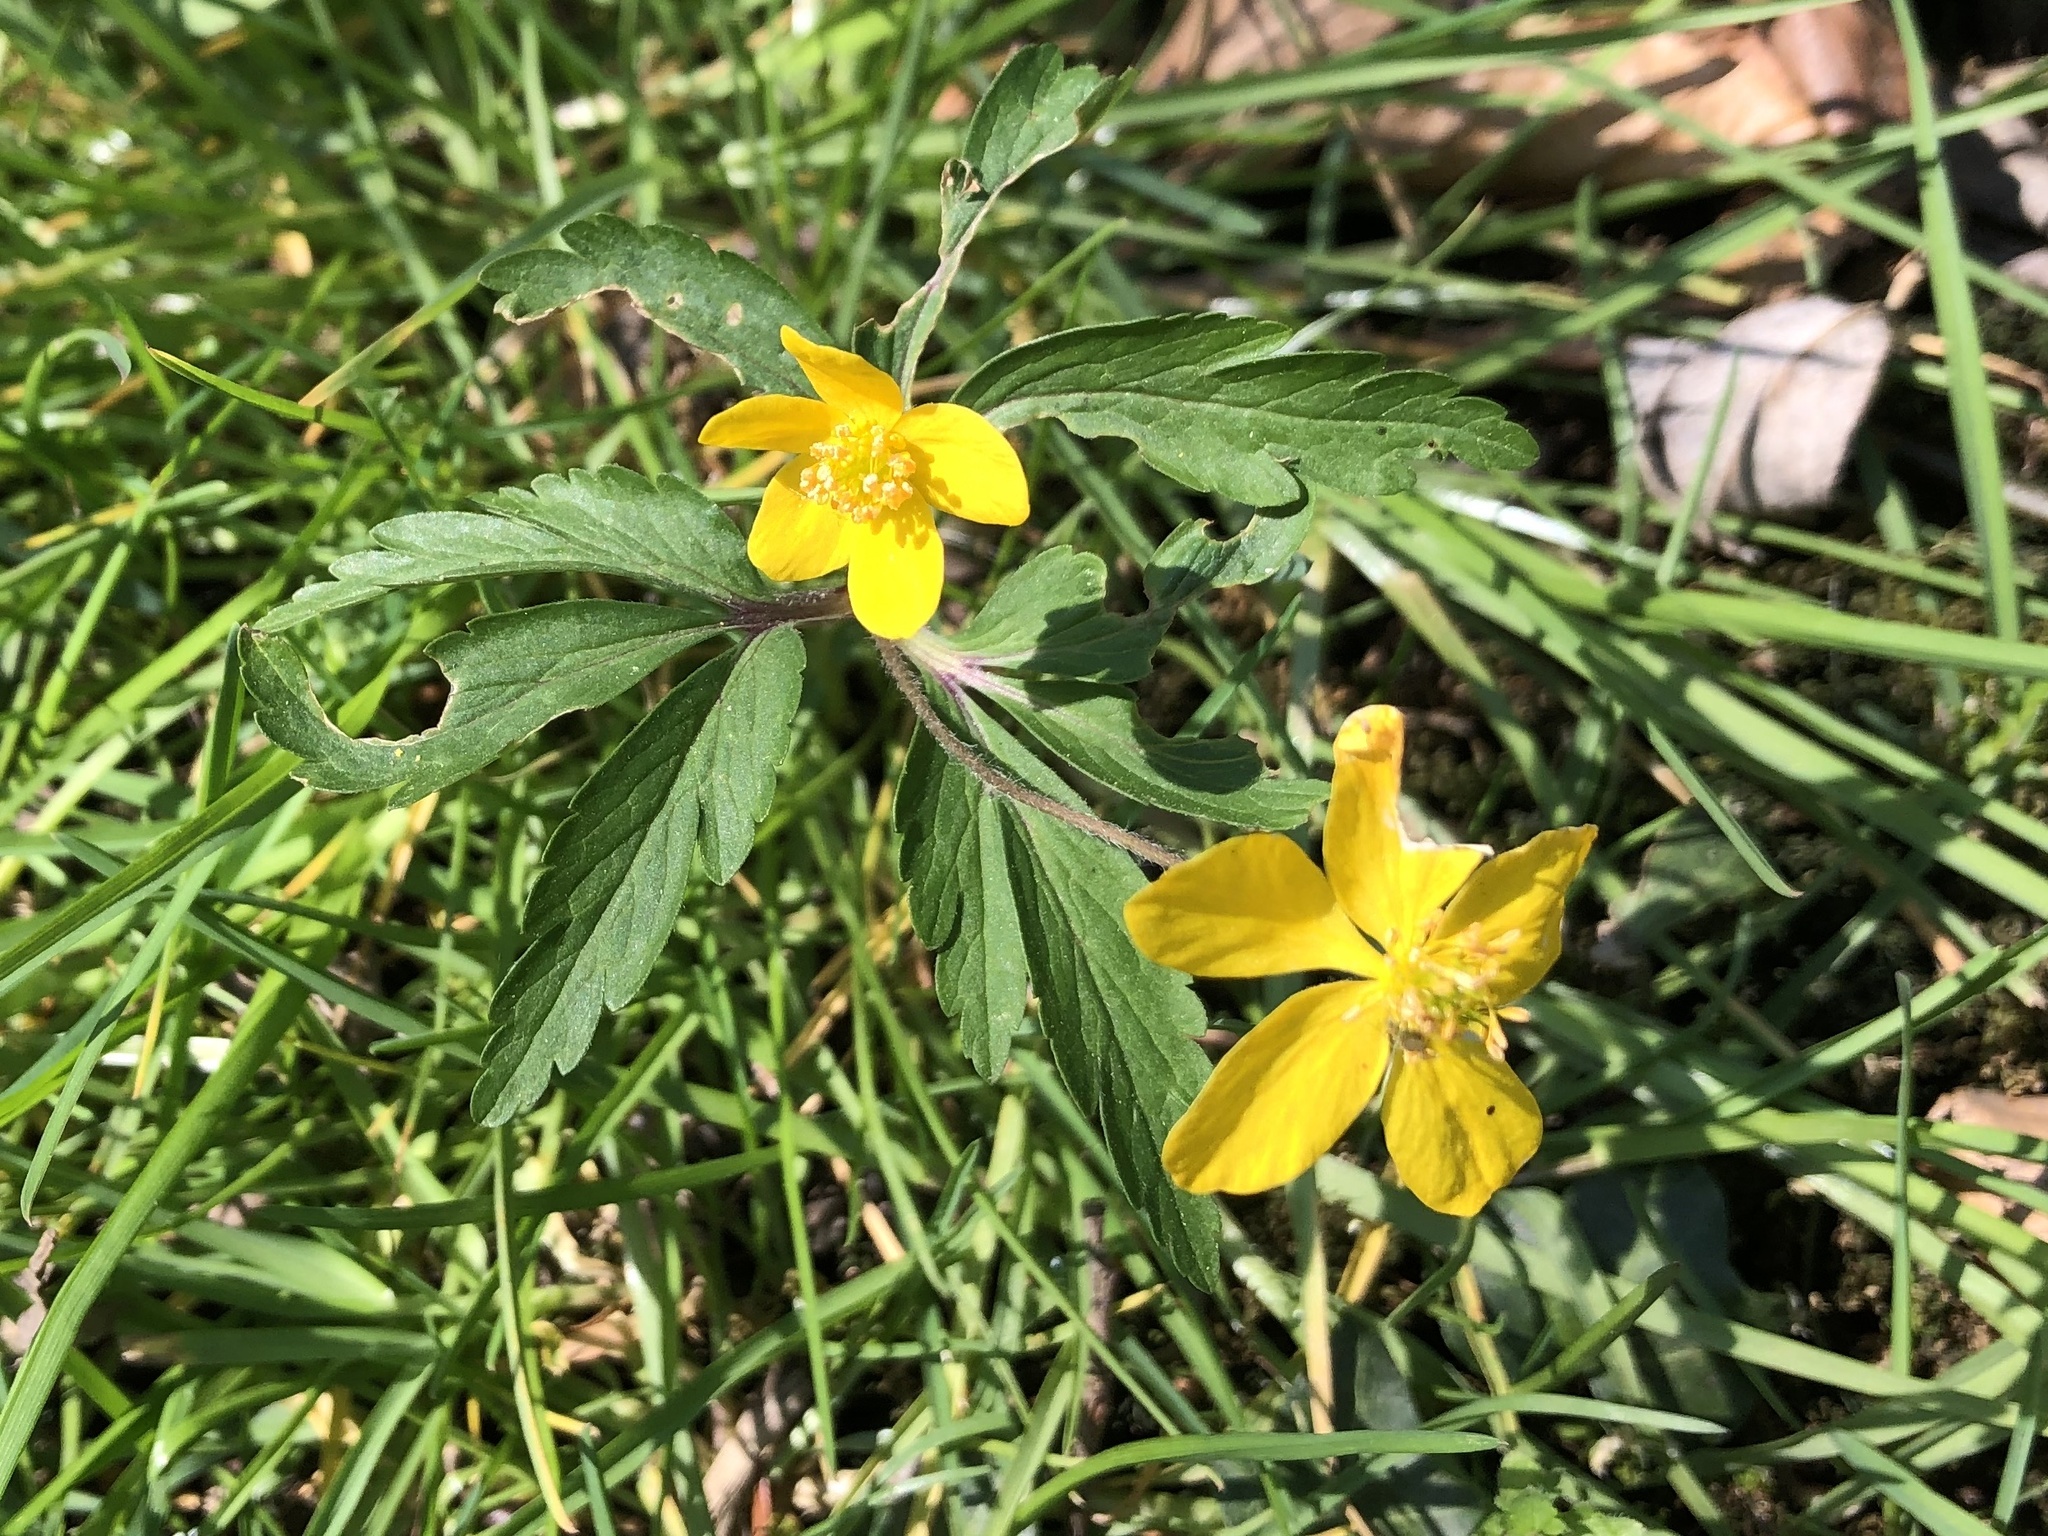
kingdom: Plantae
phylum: Tracheophyta
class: Magnoliopsida
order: Ranunculales
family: Ranunculaceae
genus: Anemone
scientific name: Anemone ranunculoides
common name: Yellow anemone
